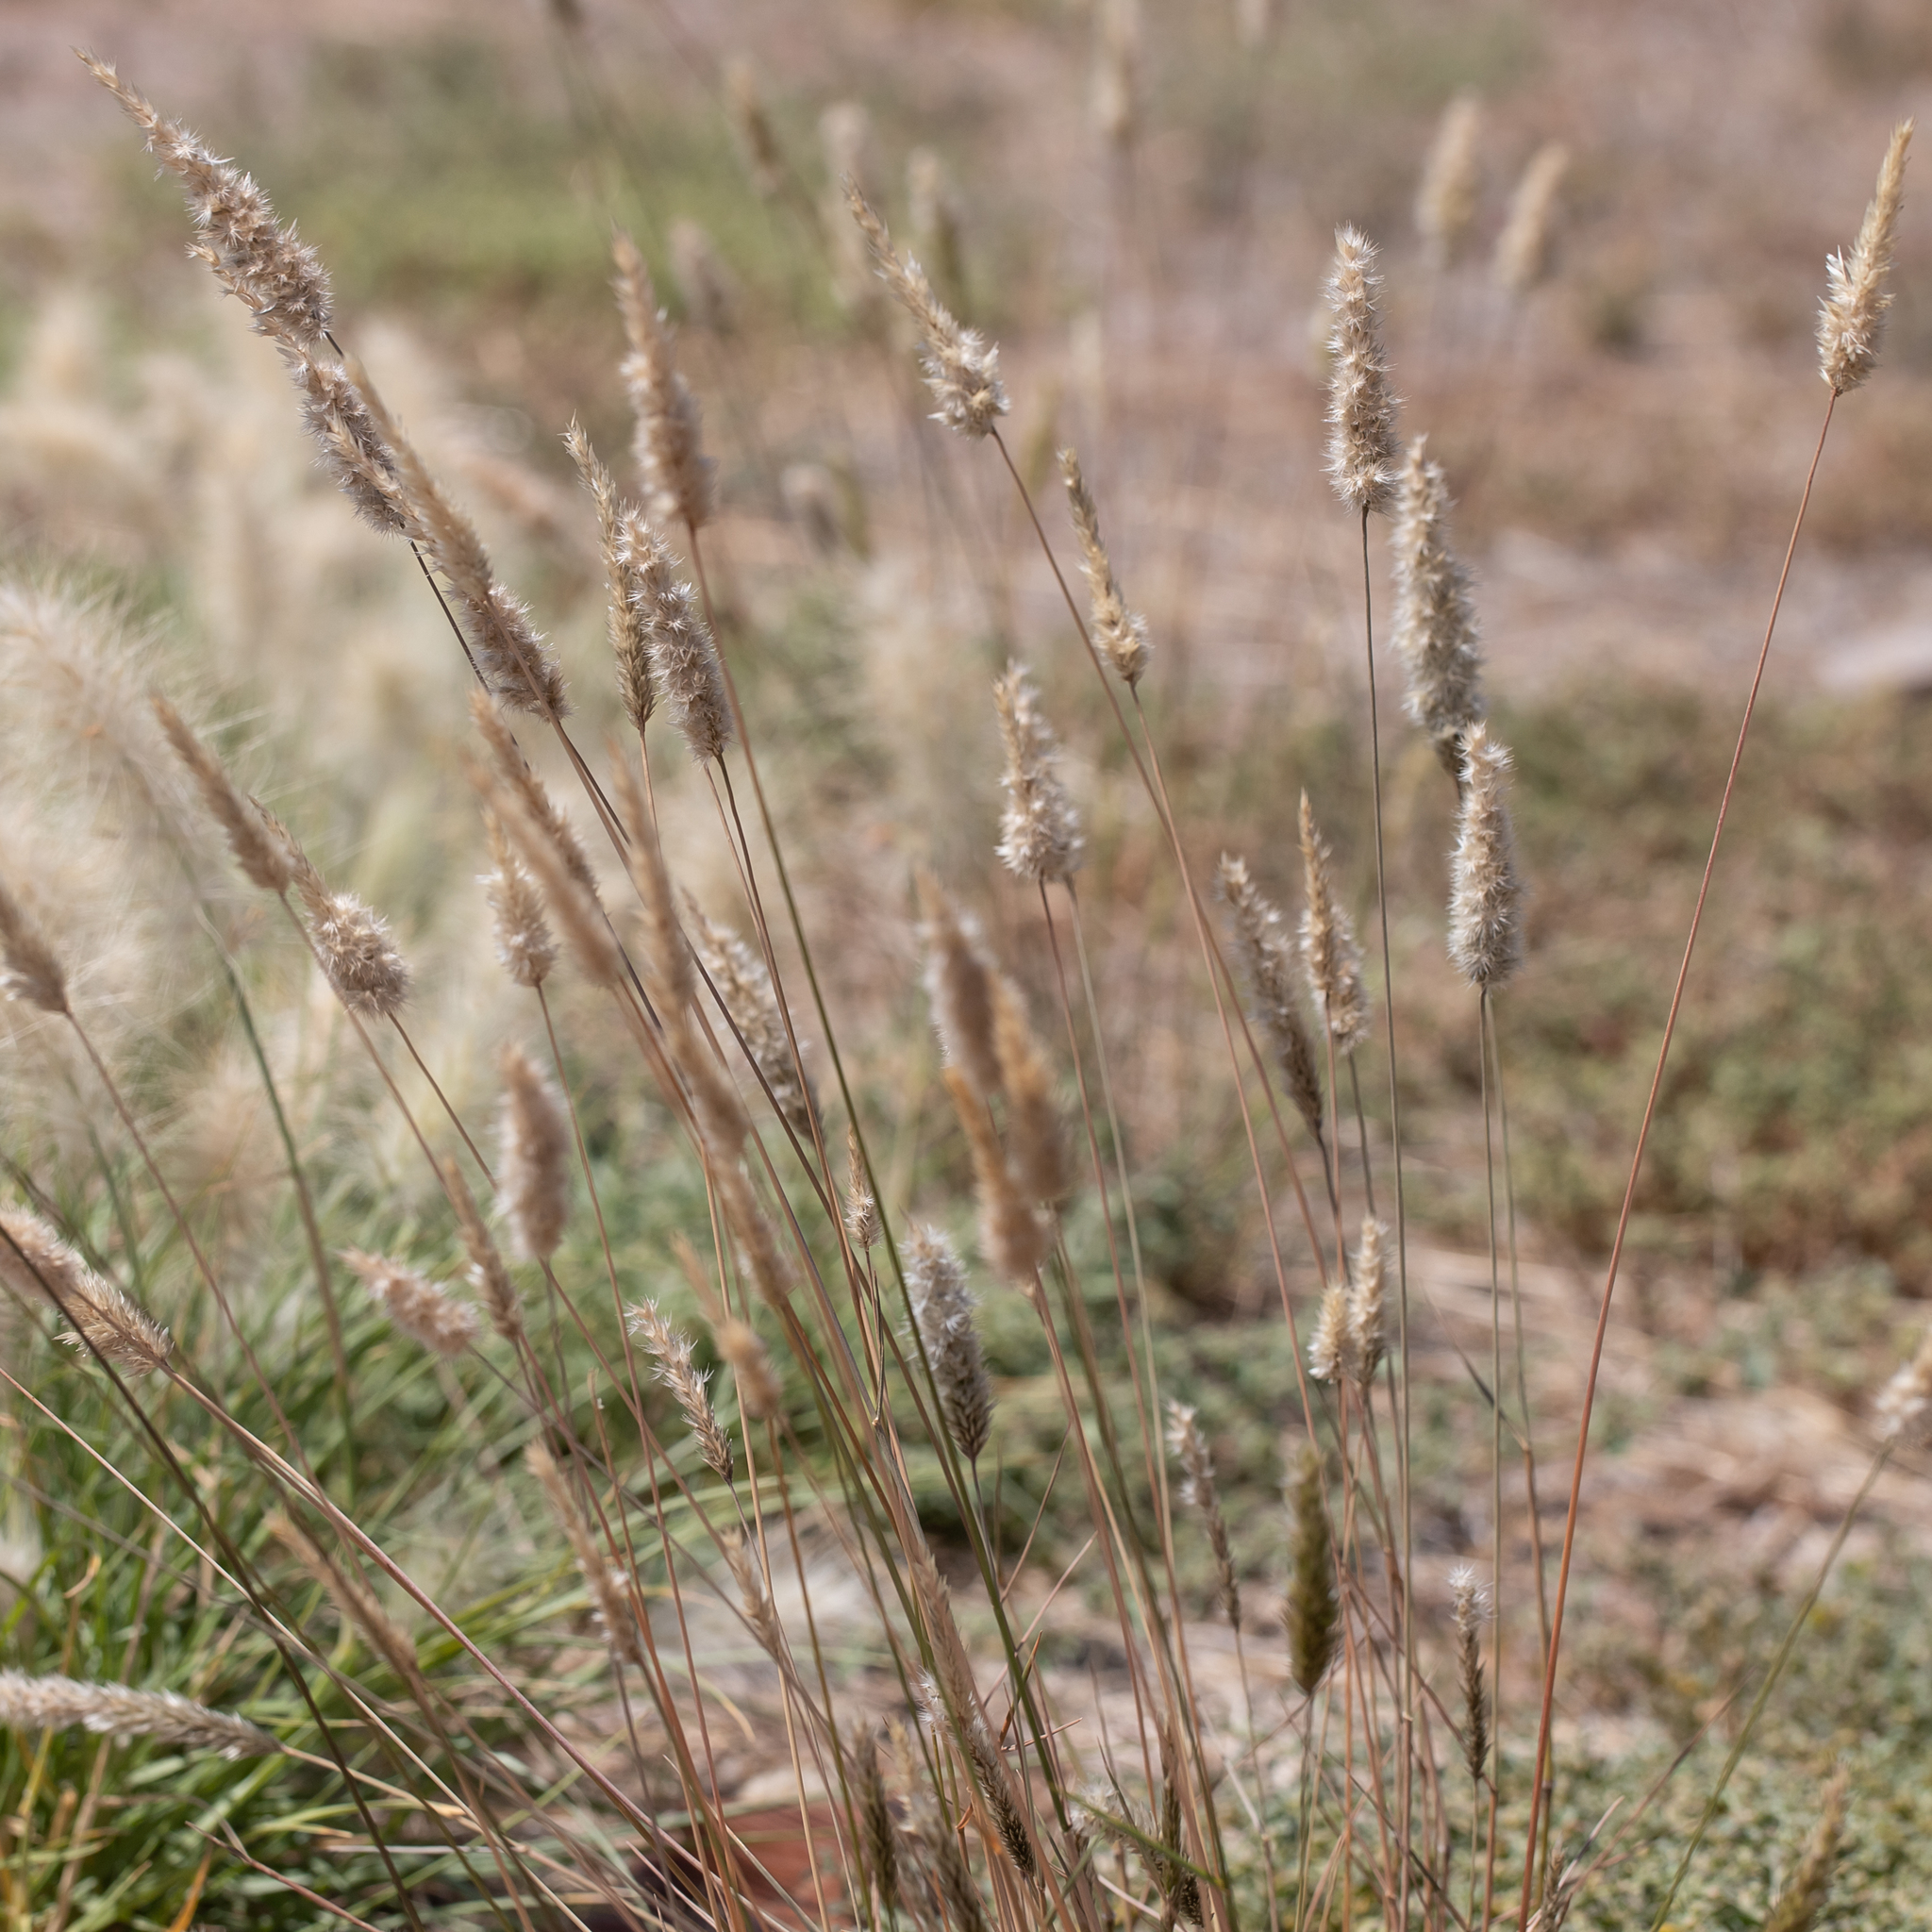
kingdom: Plantae
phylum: Tracheophyta
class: Liliopsida
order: Poales
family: Poaceae
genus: Enneapogon
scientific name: Enneapogon nigricans
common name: Pappus grass
